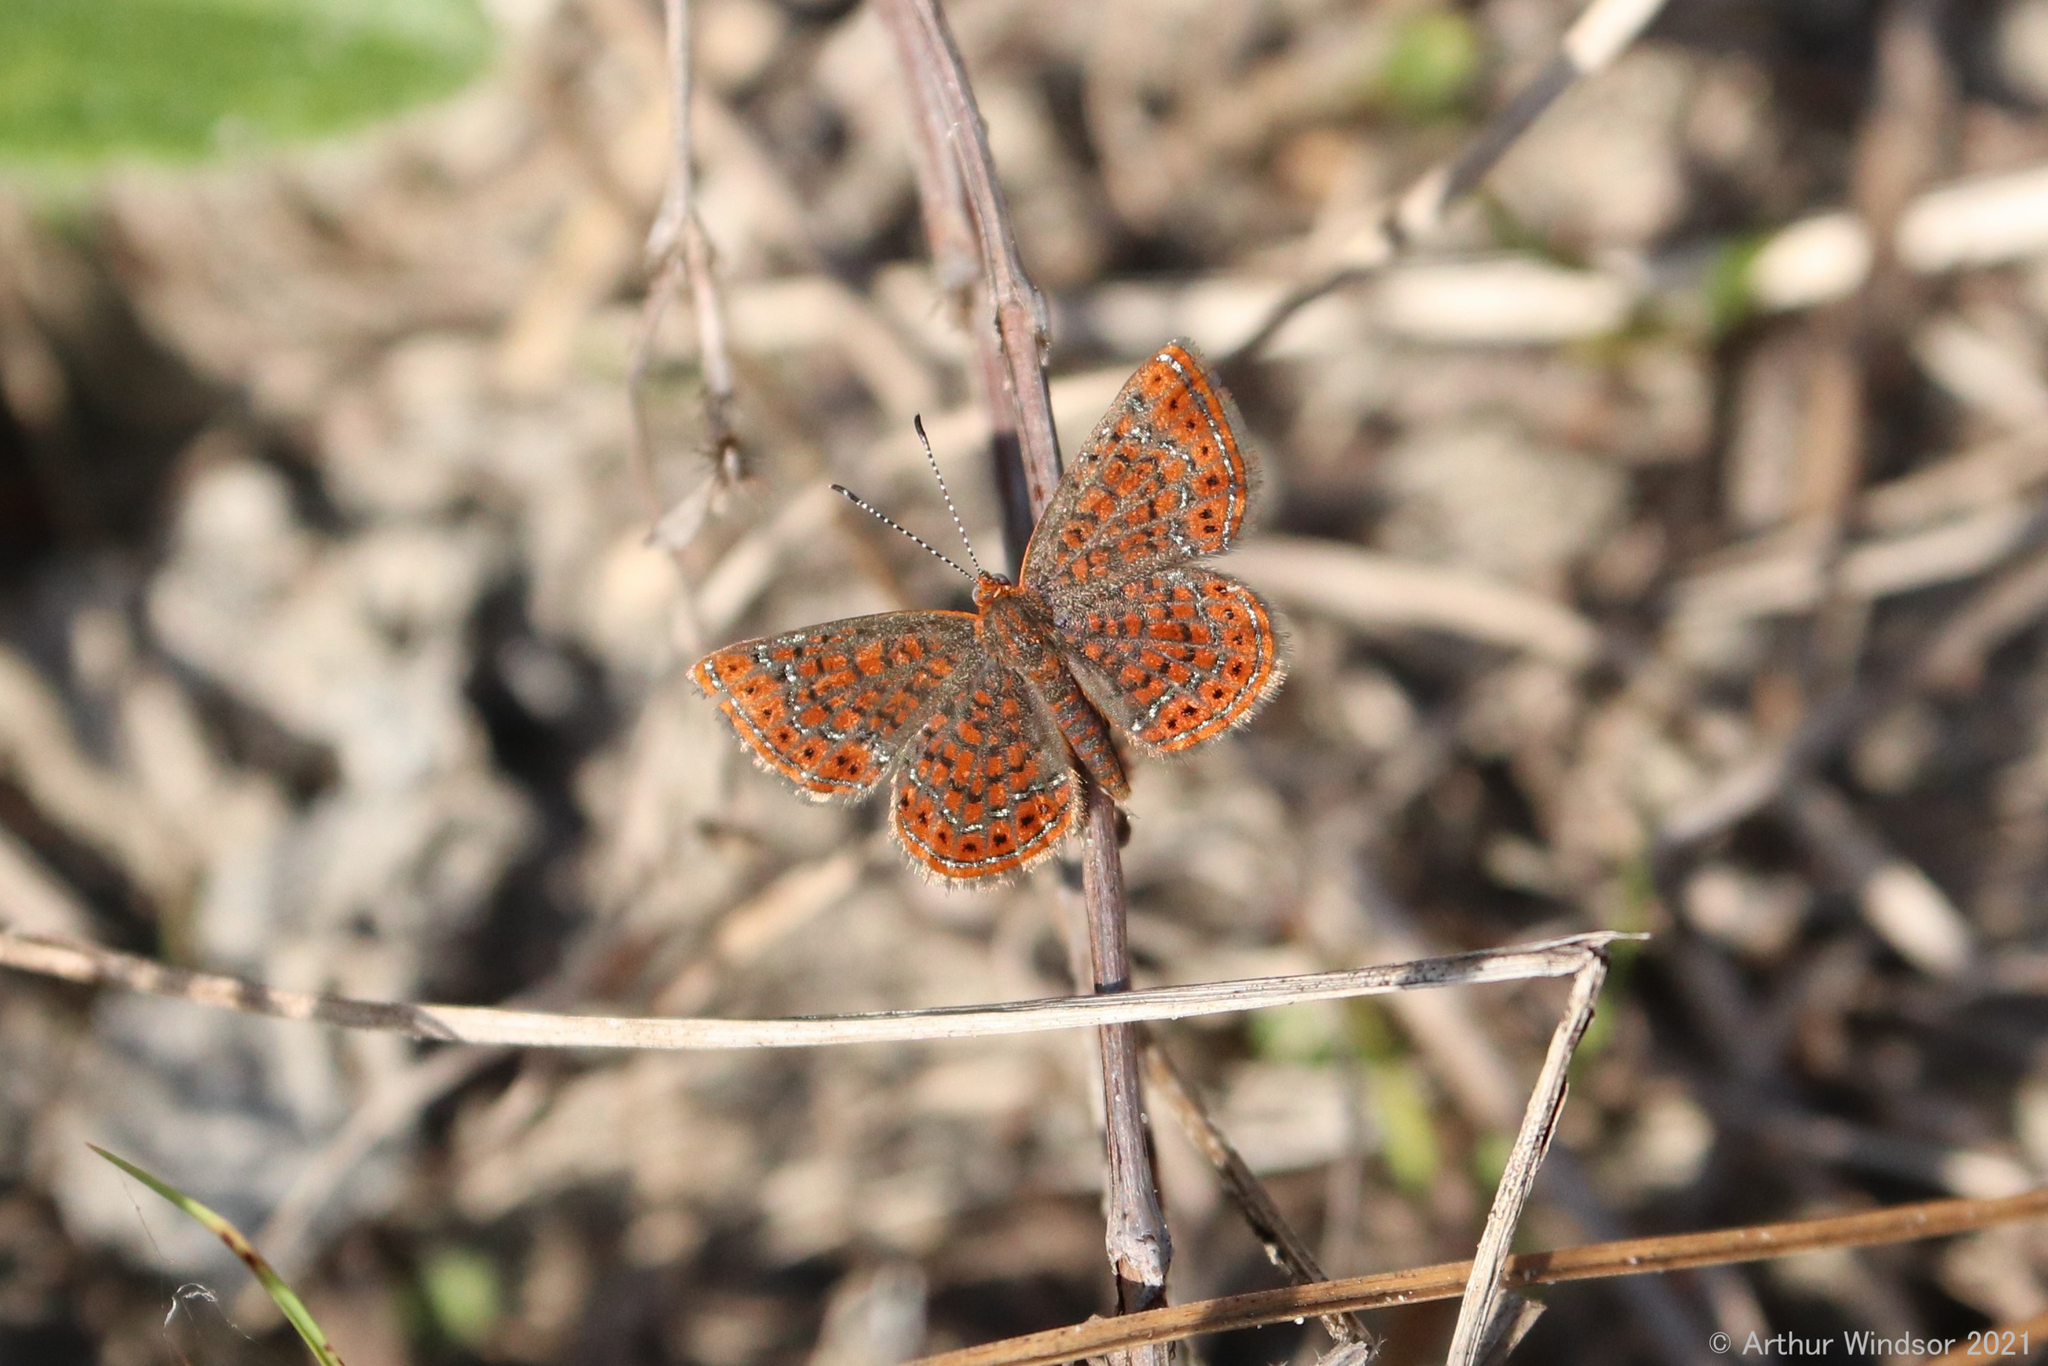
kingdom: Animalia
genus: Calephelis
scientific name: Calephelis virginiensis
